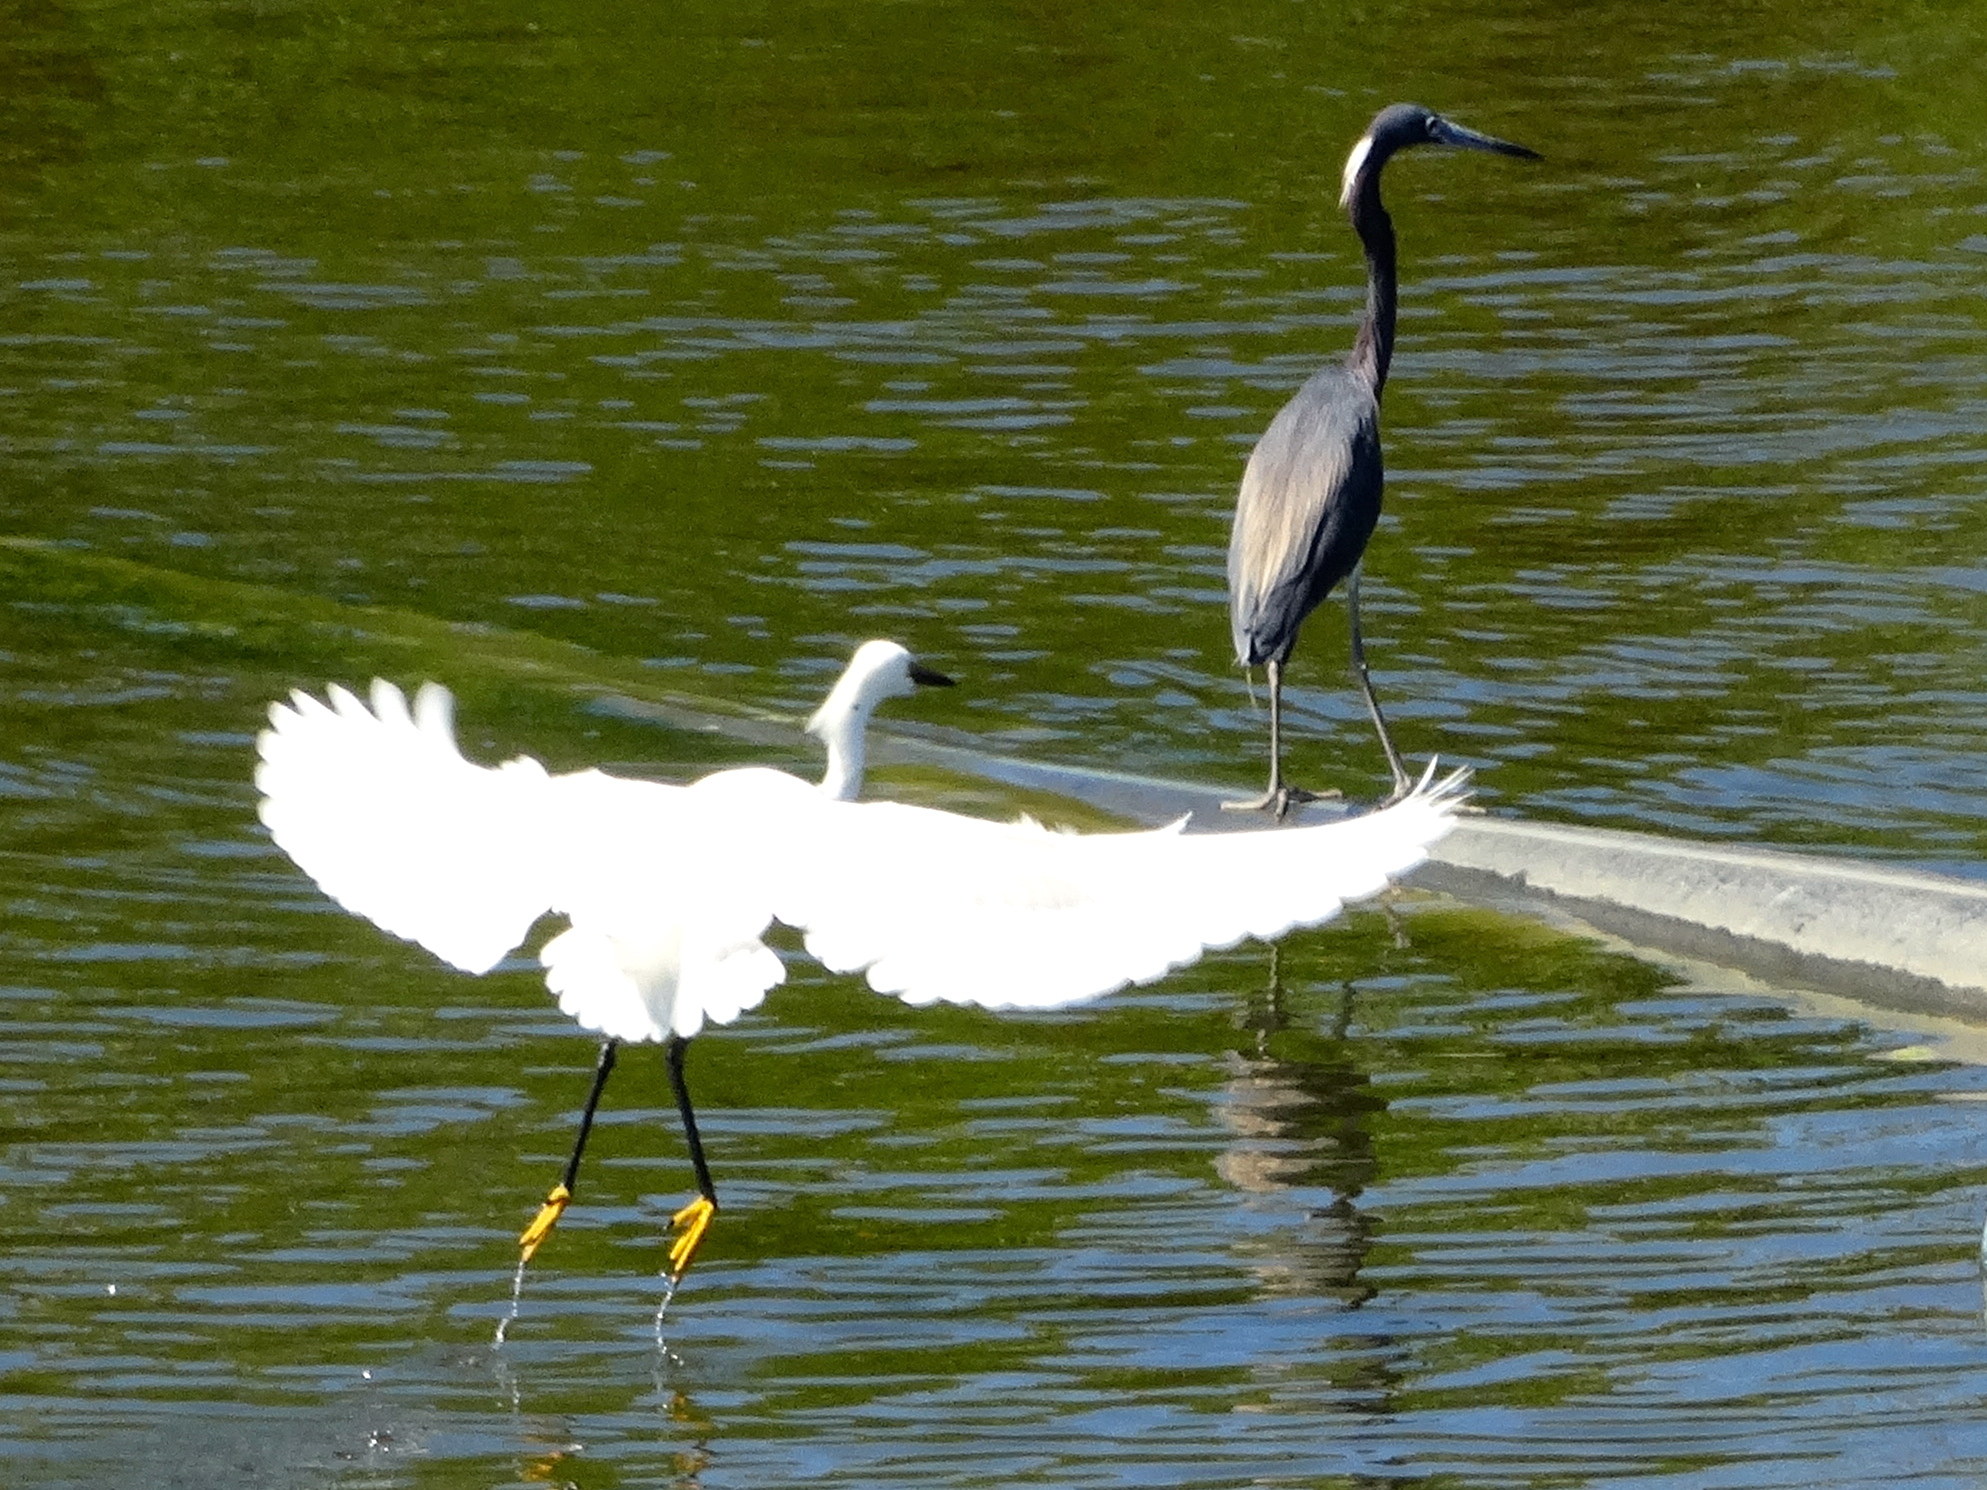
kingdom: Animalia
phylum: Chordata
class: Aves
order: Pelecaniformes
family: Ardeidae
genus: Egretta
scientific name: Egretta thula
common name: Snowy egret
